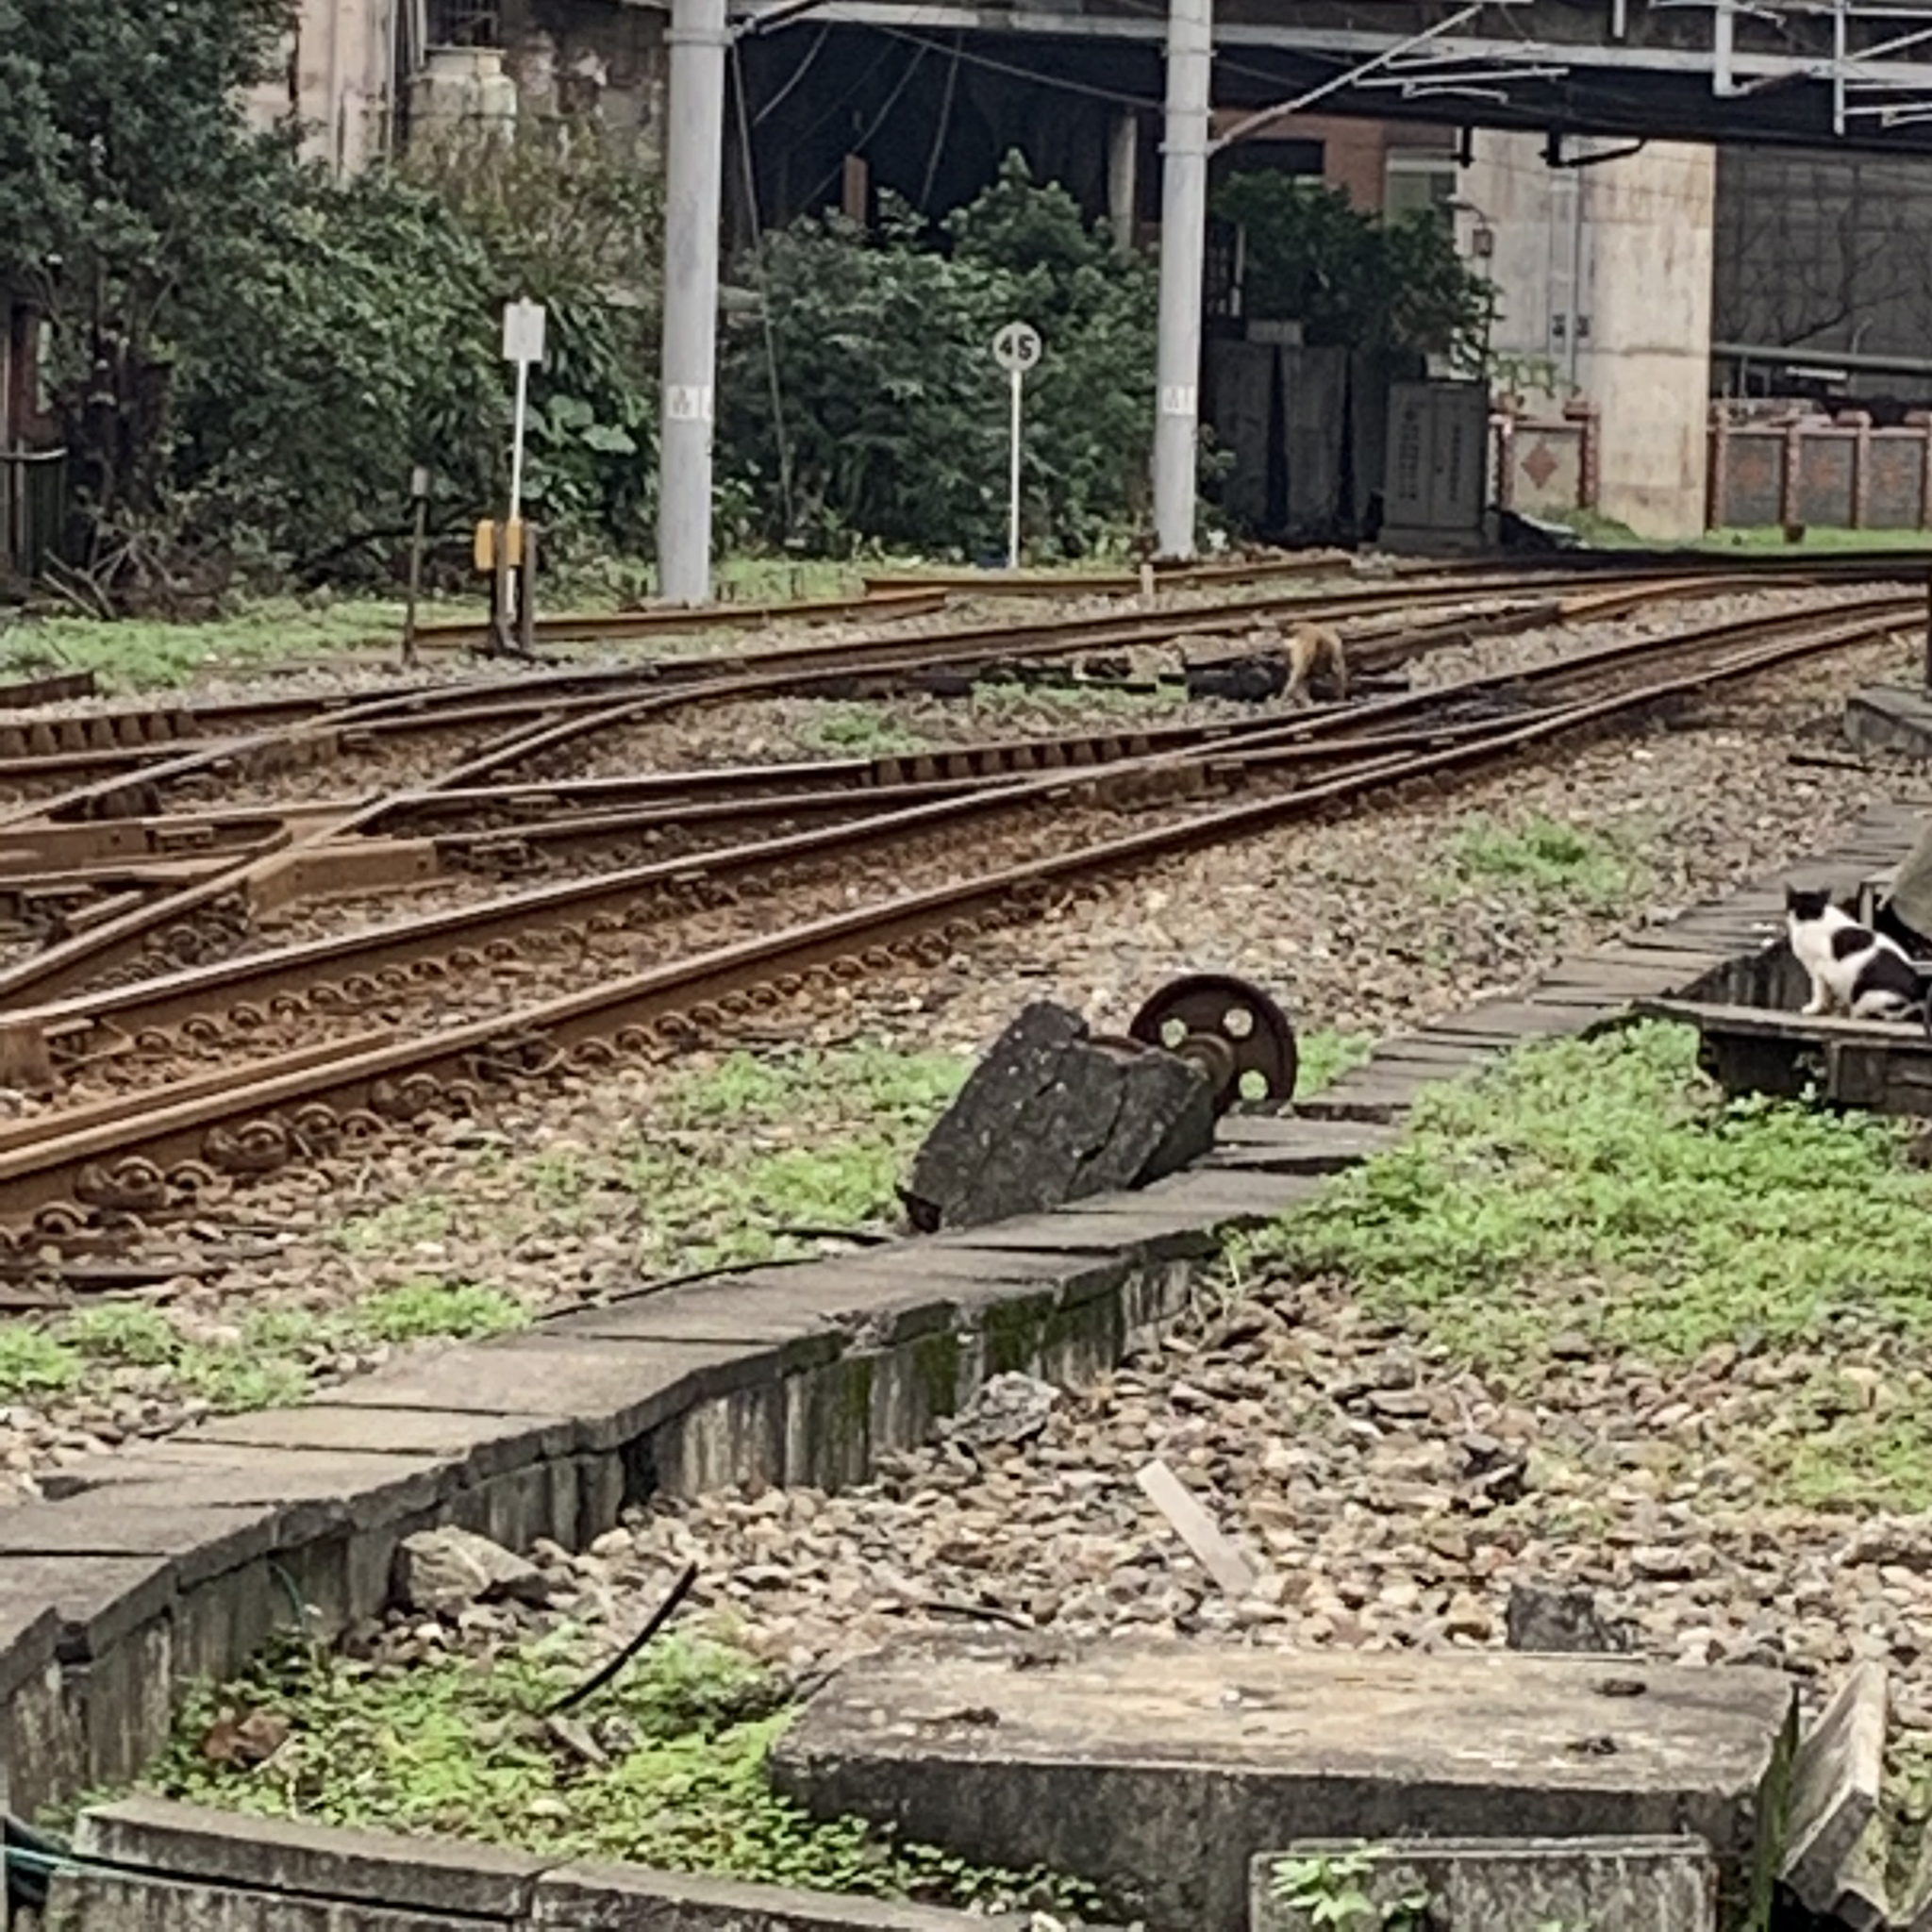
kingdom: Animalia
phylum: Chordata
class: Mammalia
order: Carnivora
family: Felidae
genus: Felis
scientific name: Felis catus
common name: Domestic cat
